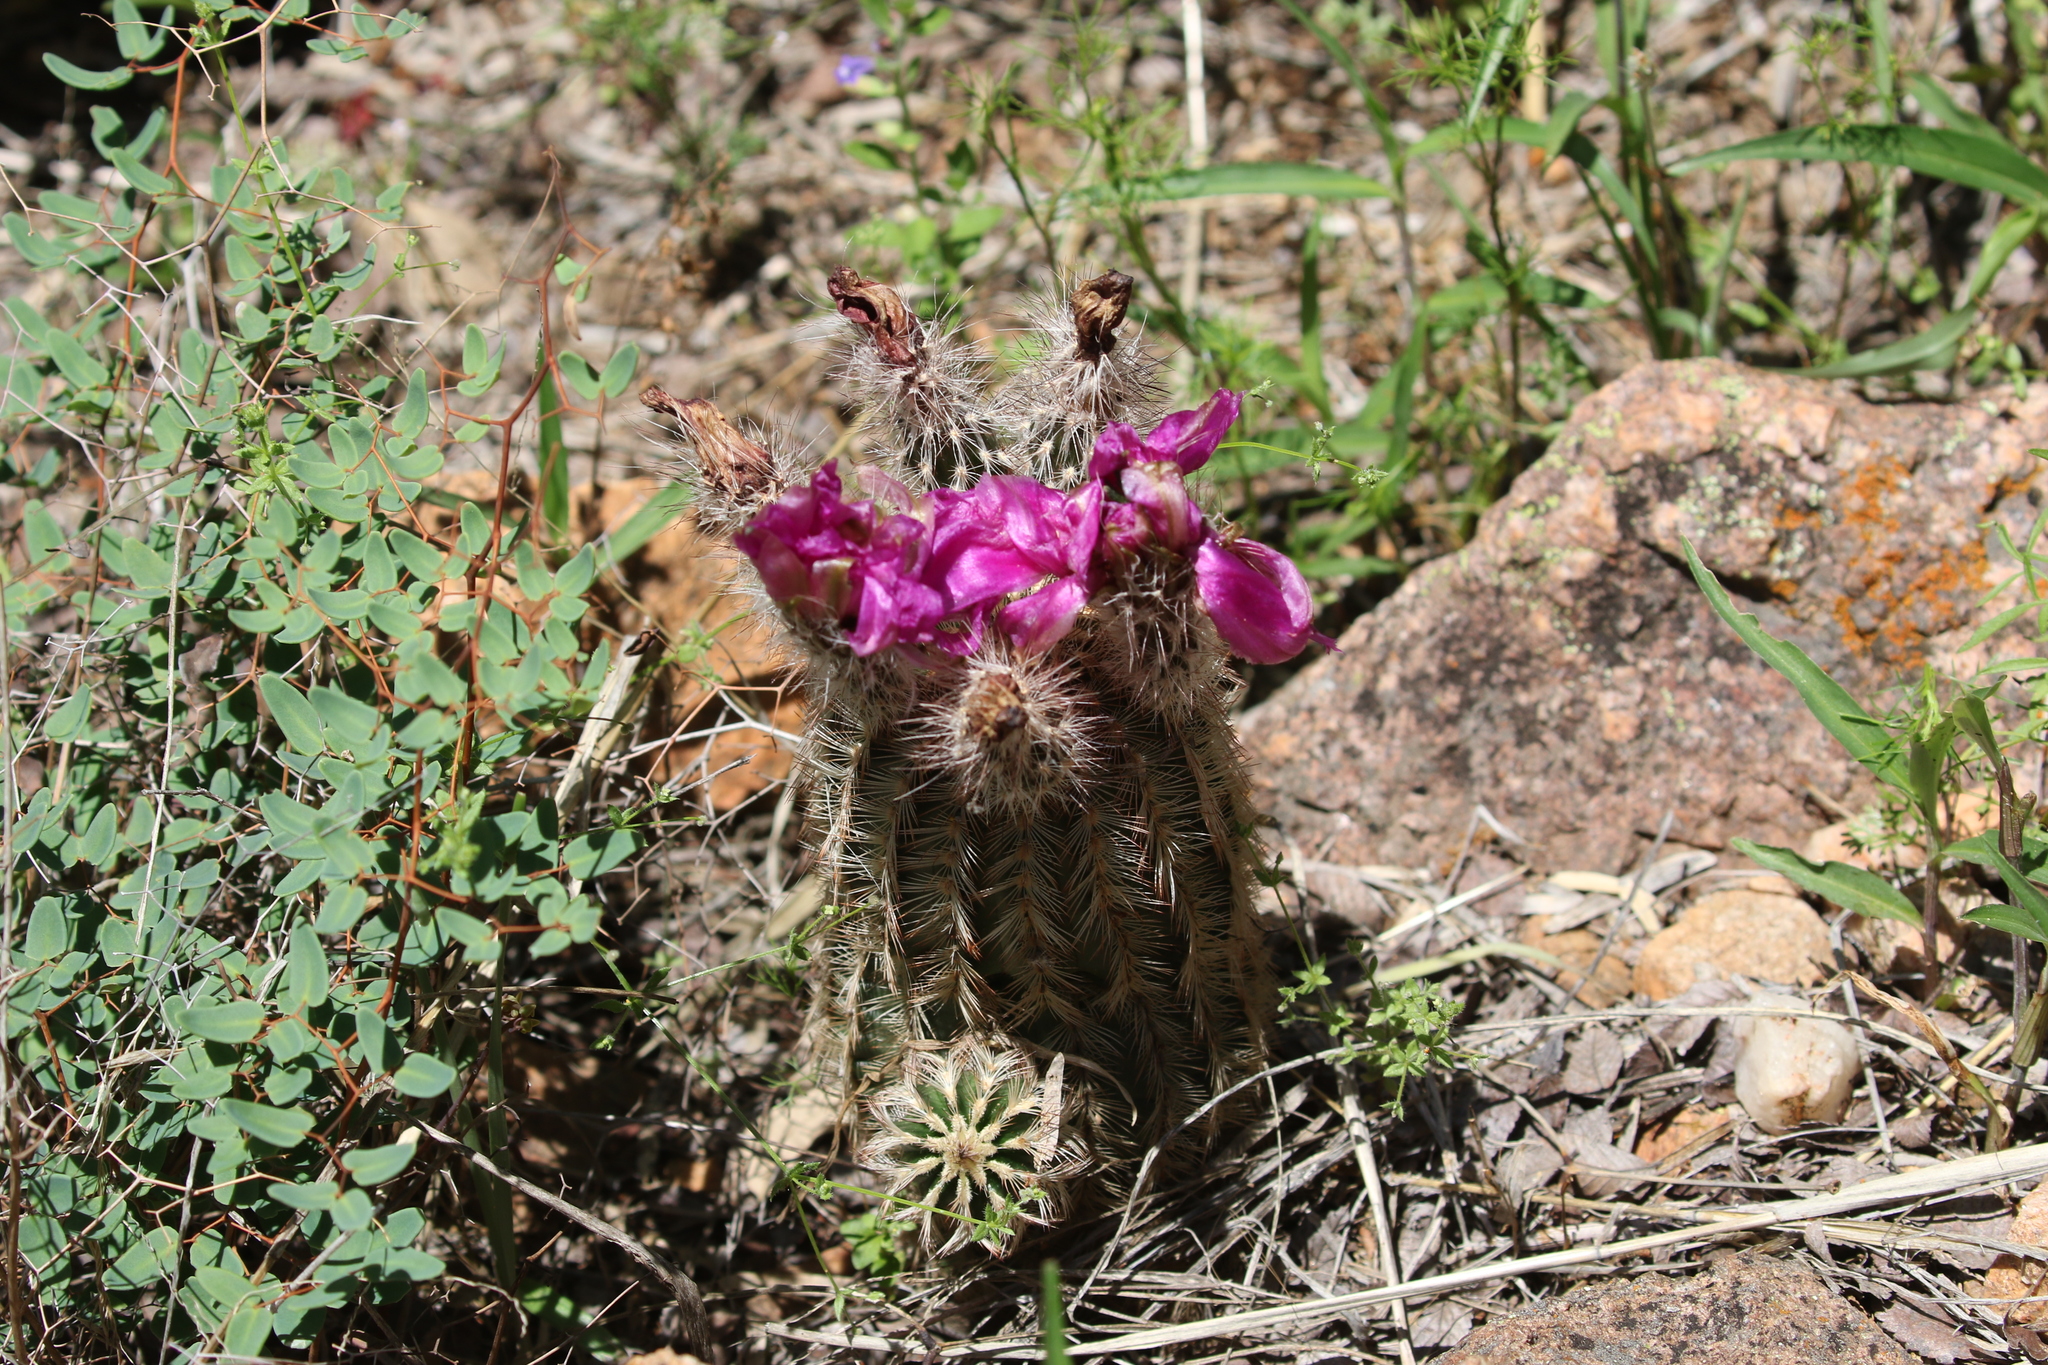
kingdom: Plantae
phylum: Tracheophyta
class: Magnoliopsida
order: Caryophyllales
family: Cactaceae
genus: Echinocereus
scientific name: Echinocereus reichenbachii
